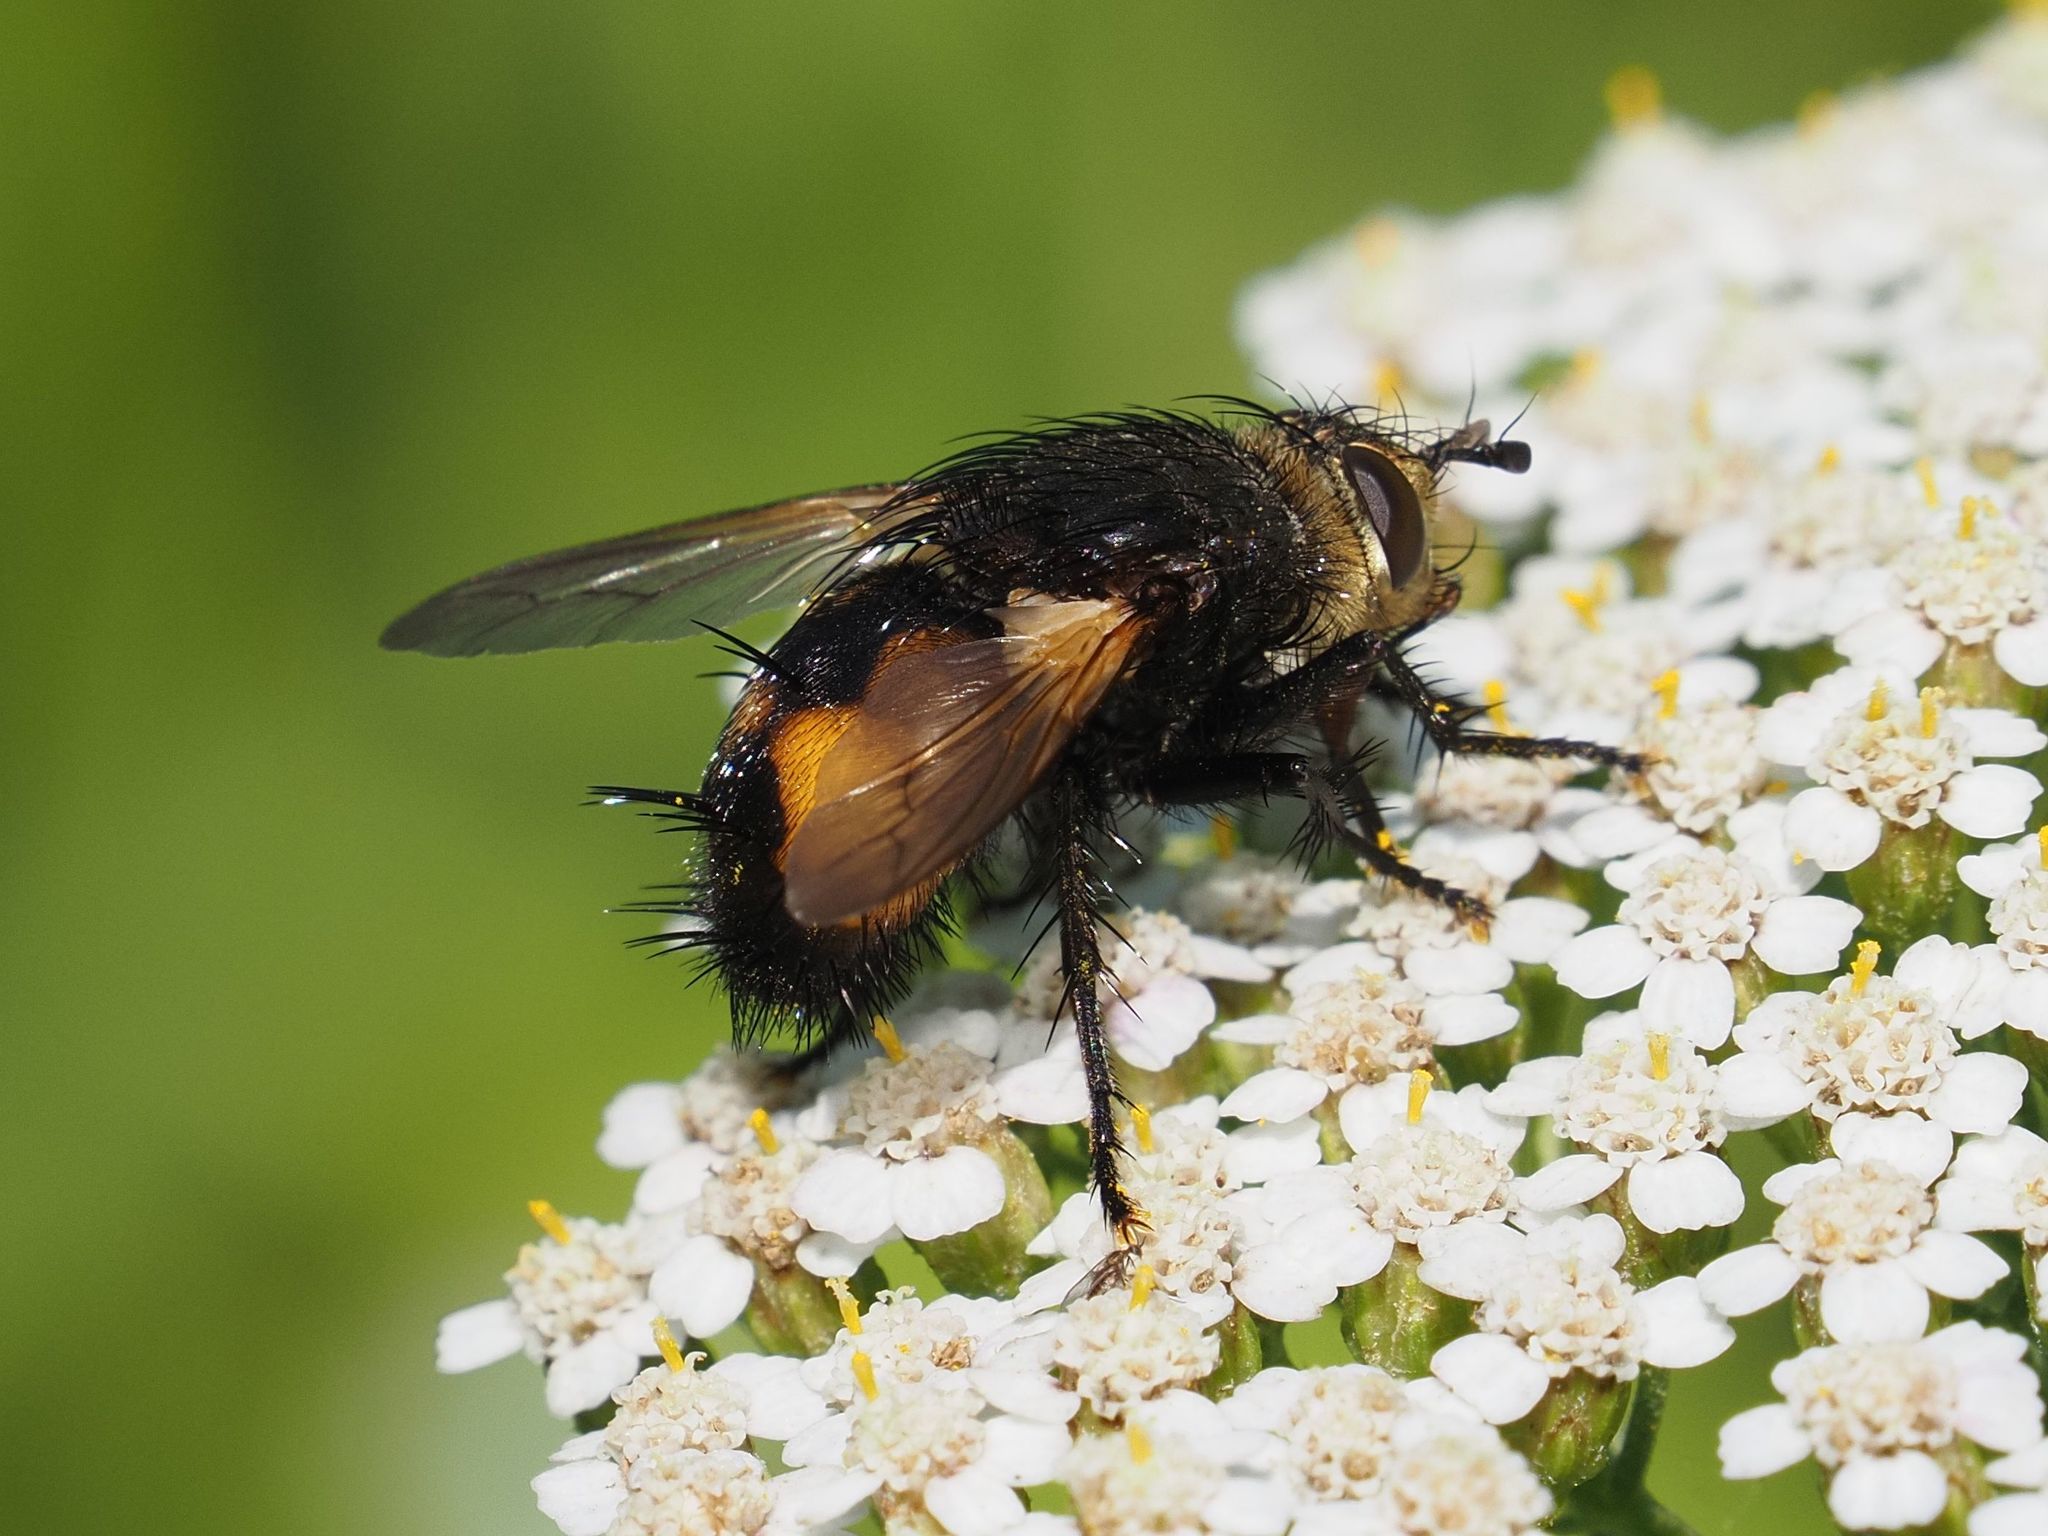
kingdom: Animalia
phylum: Arthropoda
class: Insecta
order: Diptera
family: Tachinidae
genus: Nowickia
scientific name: Nowickia ferox
